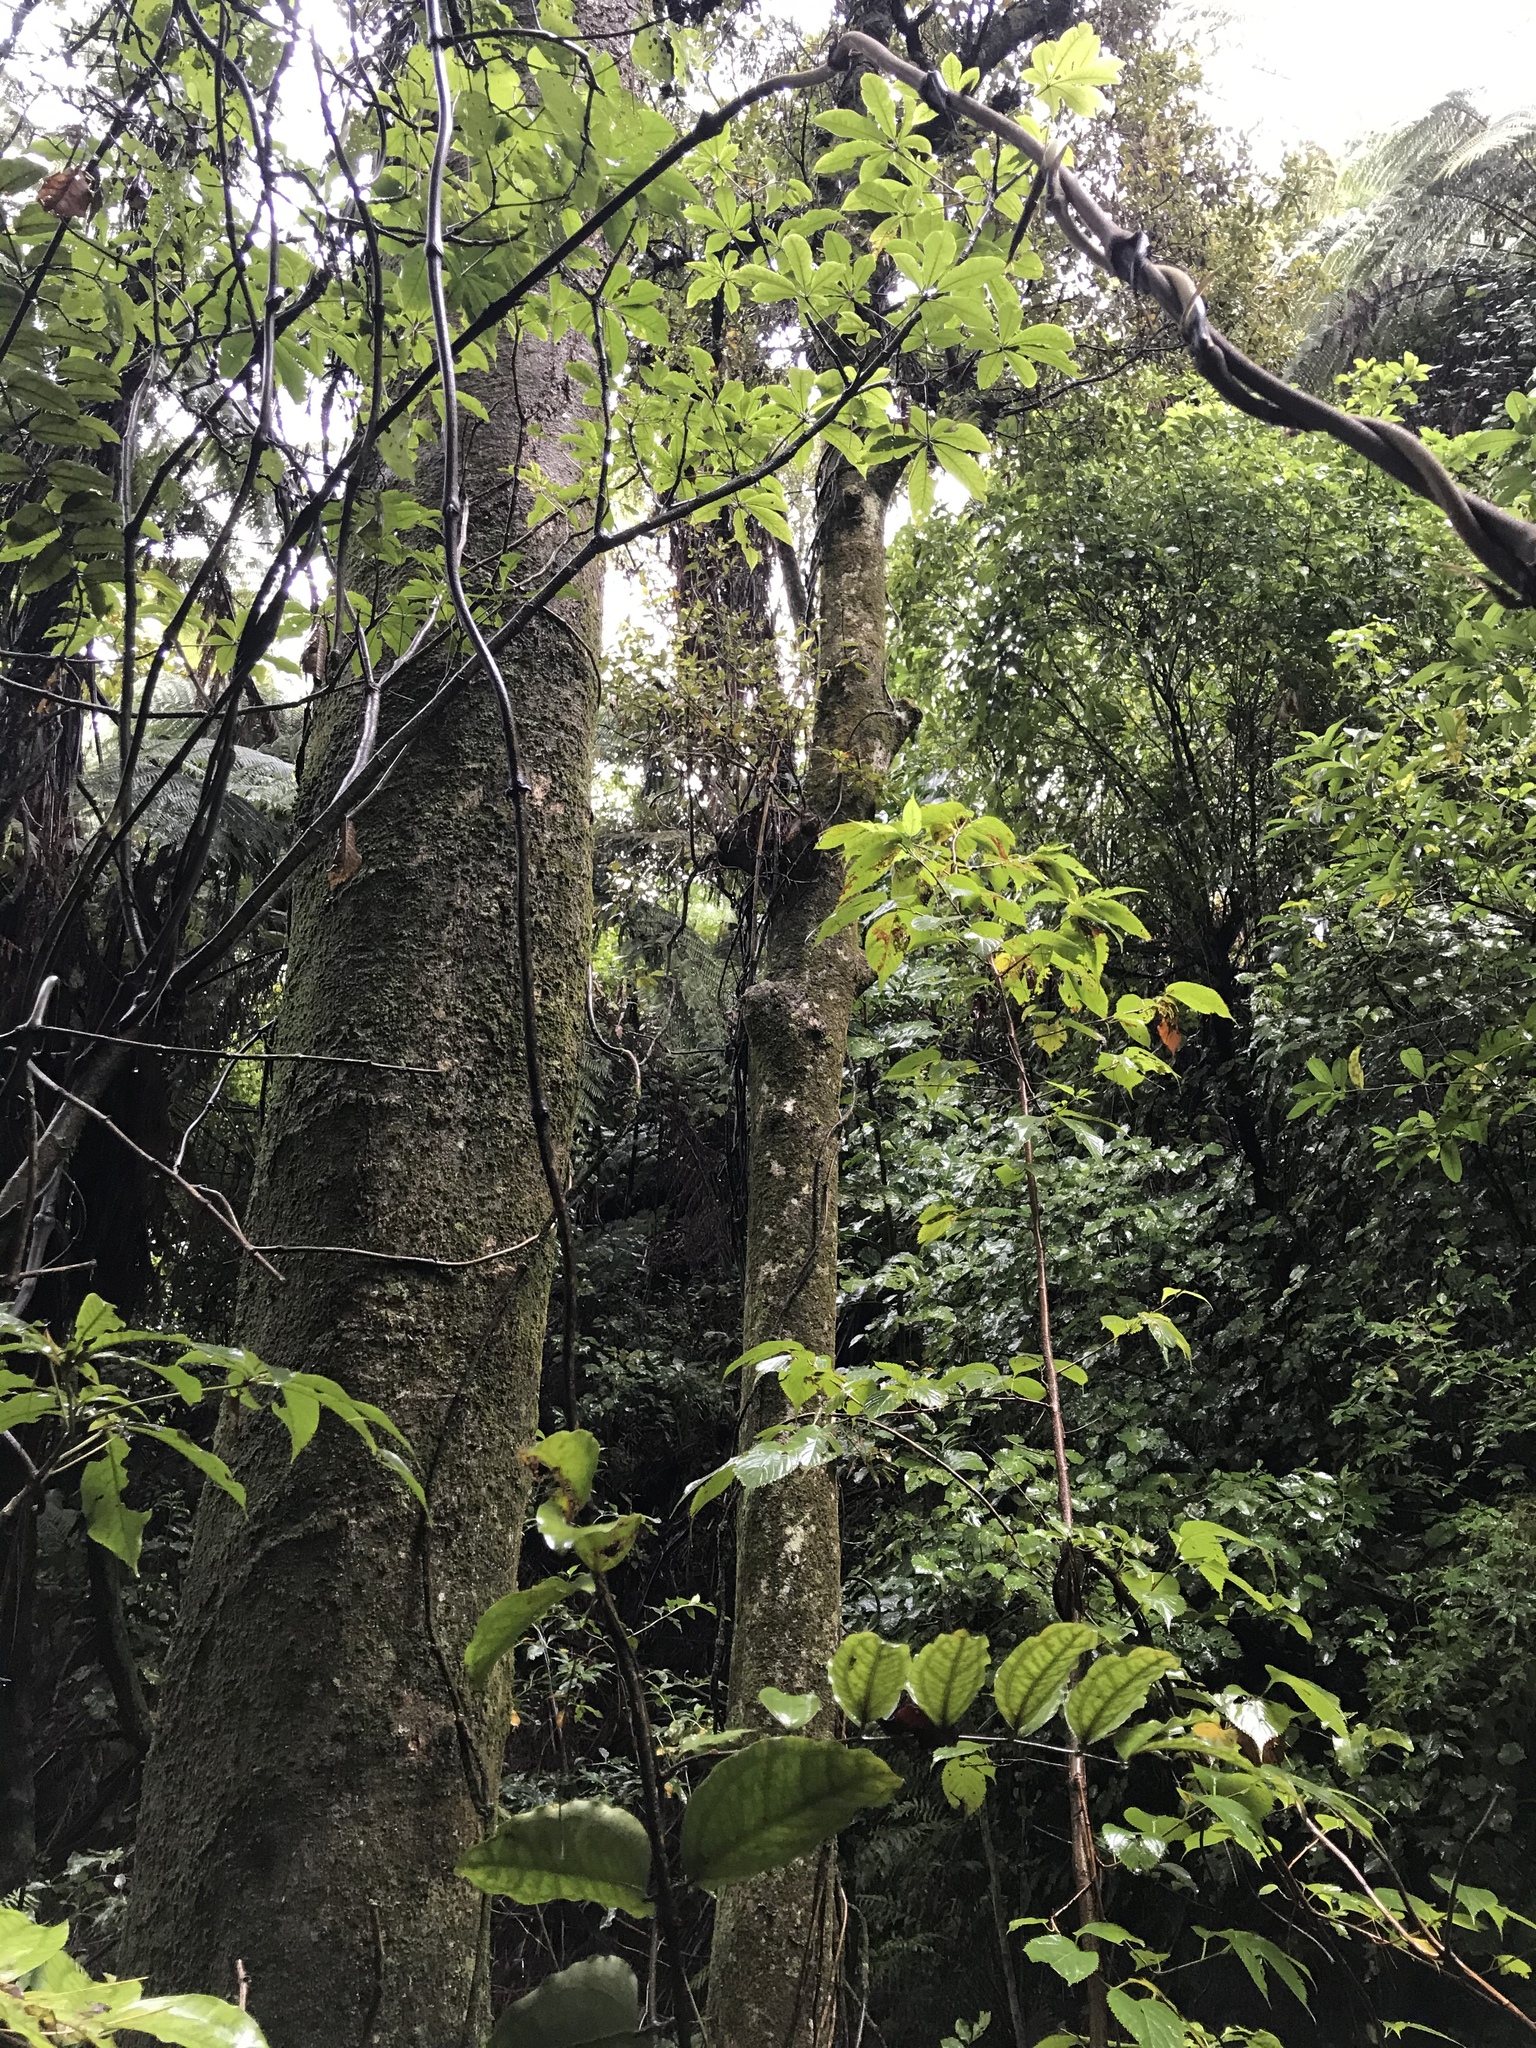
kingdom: Plantae
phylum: Tracheophyta
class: Magnoliopsida
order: Myrtales
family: Myrtaceae
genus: Syzygium
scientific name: Syzygium maire
